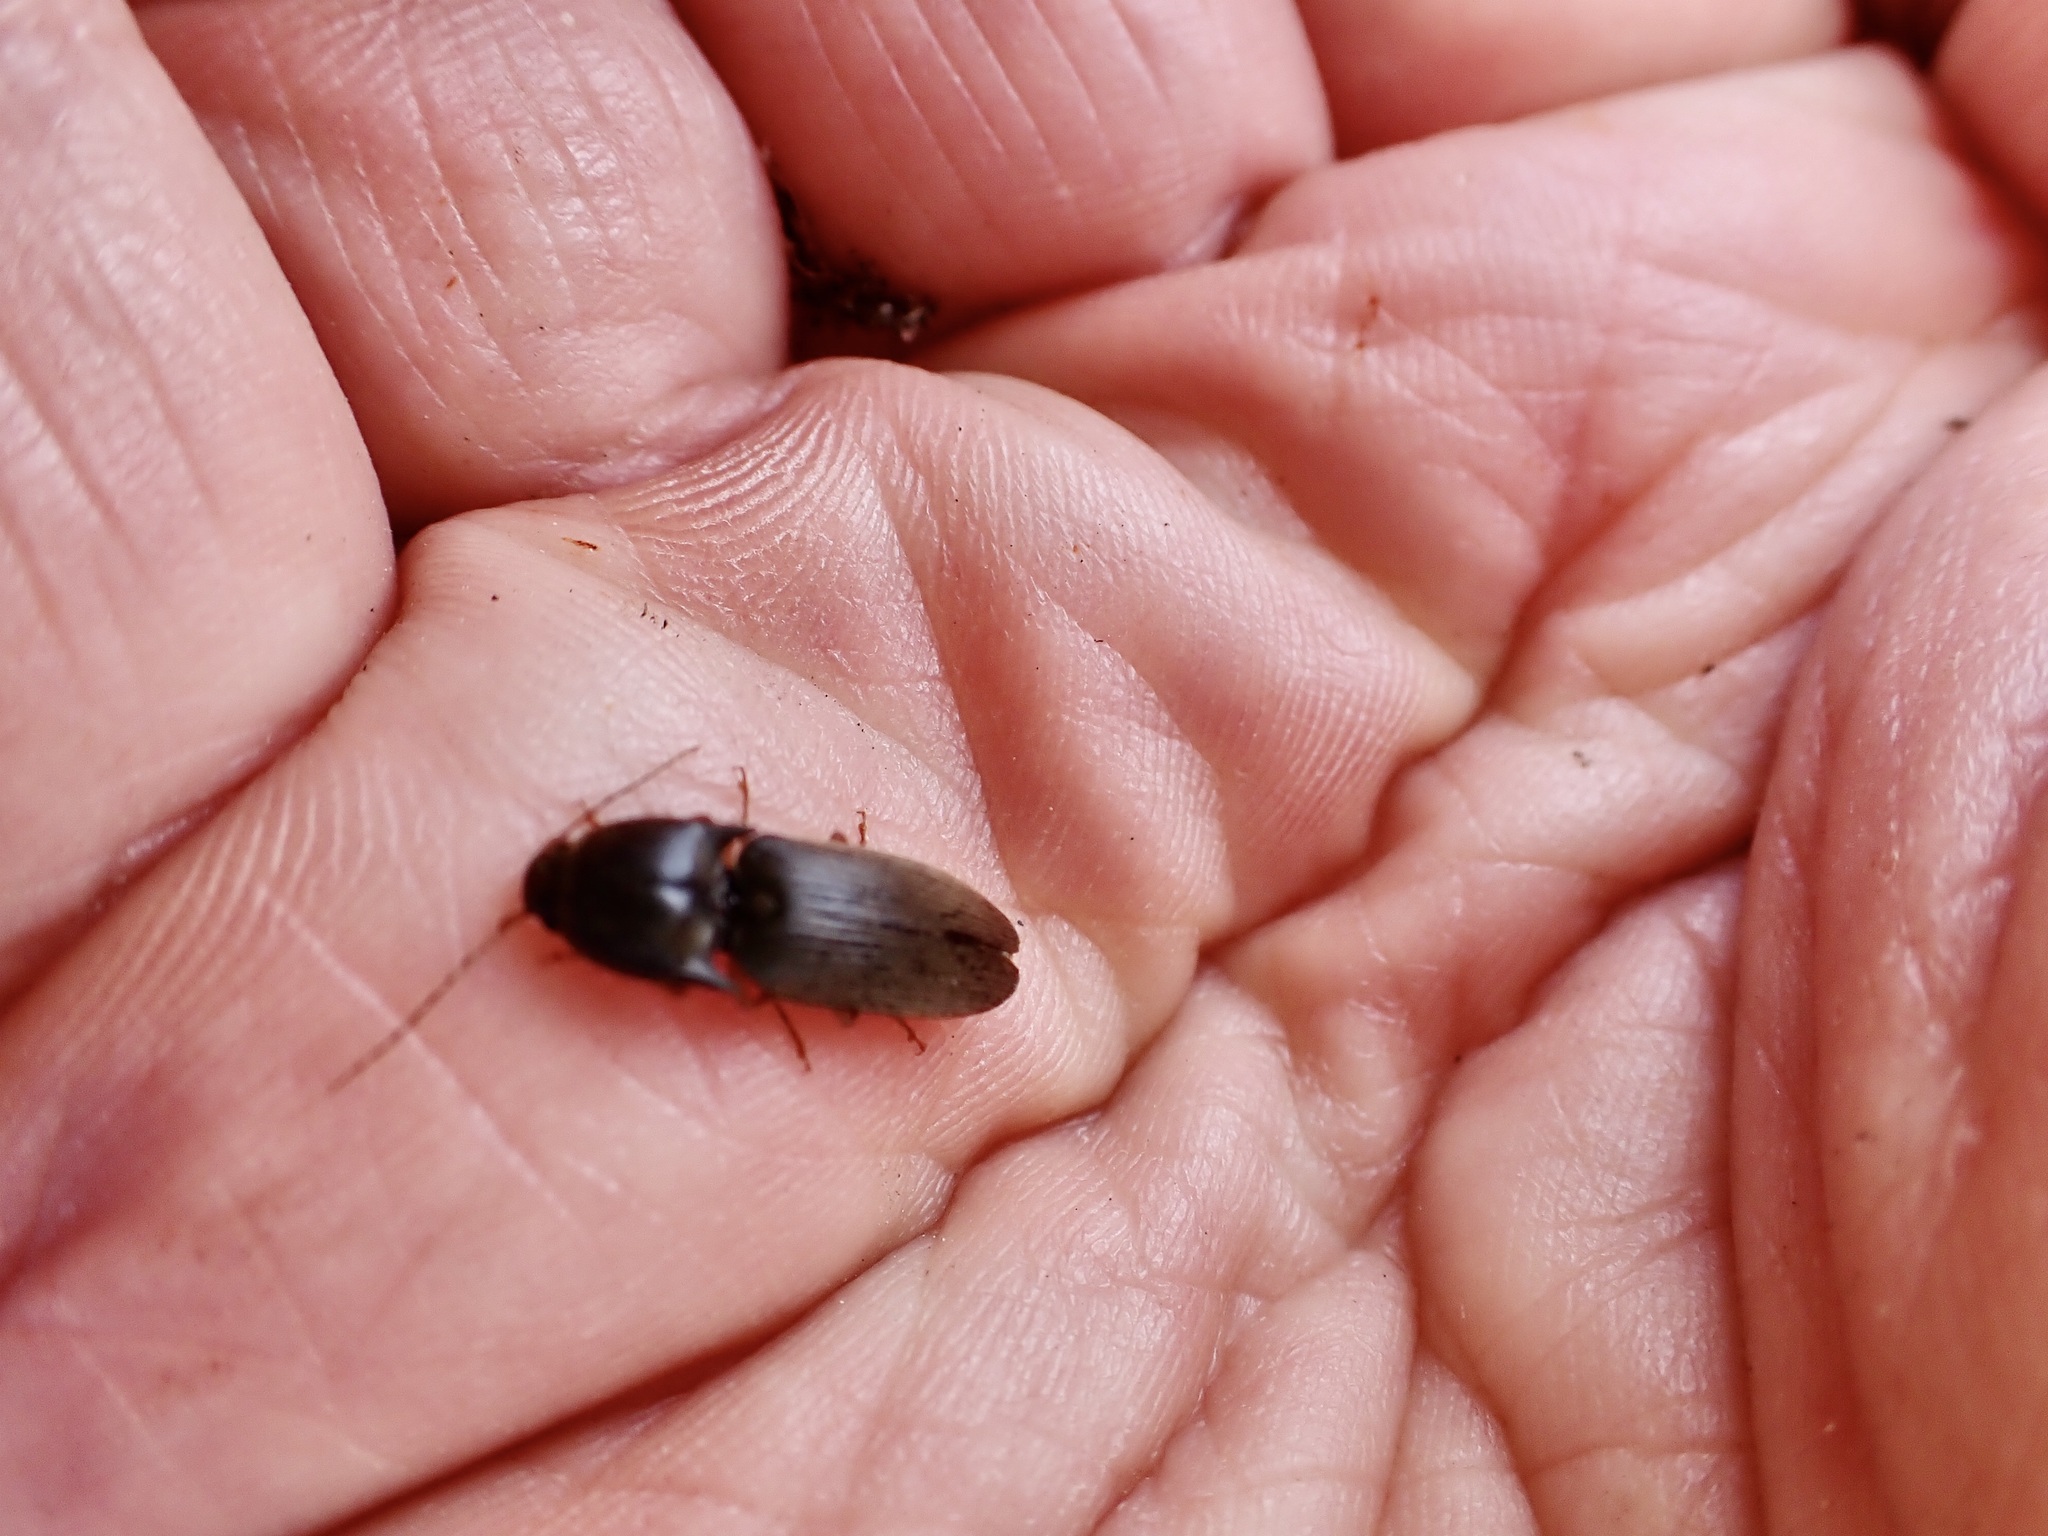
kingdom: Animalia
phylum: Arthropoda
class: Insecta
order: Coleoptera
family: Elateridae
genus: Conoderus
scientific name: Conoderus exsul
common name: Click beetle
